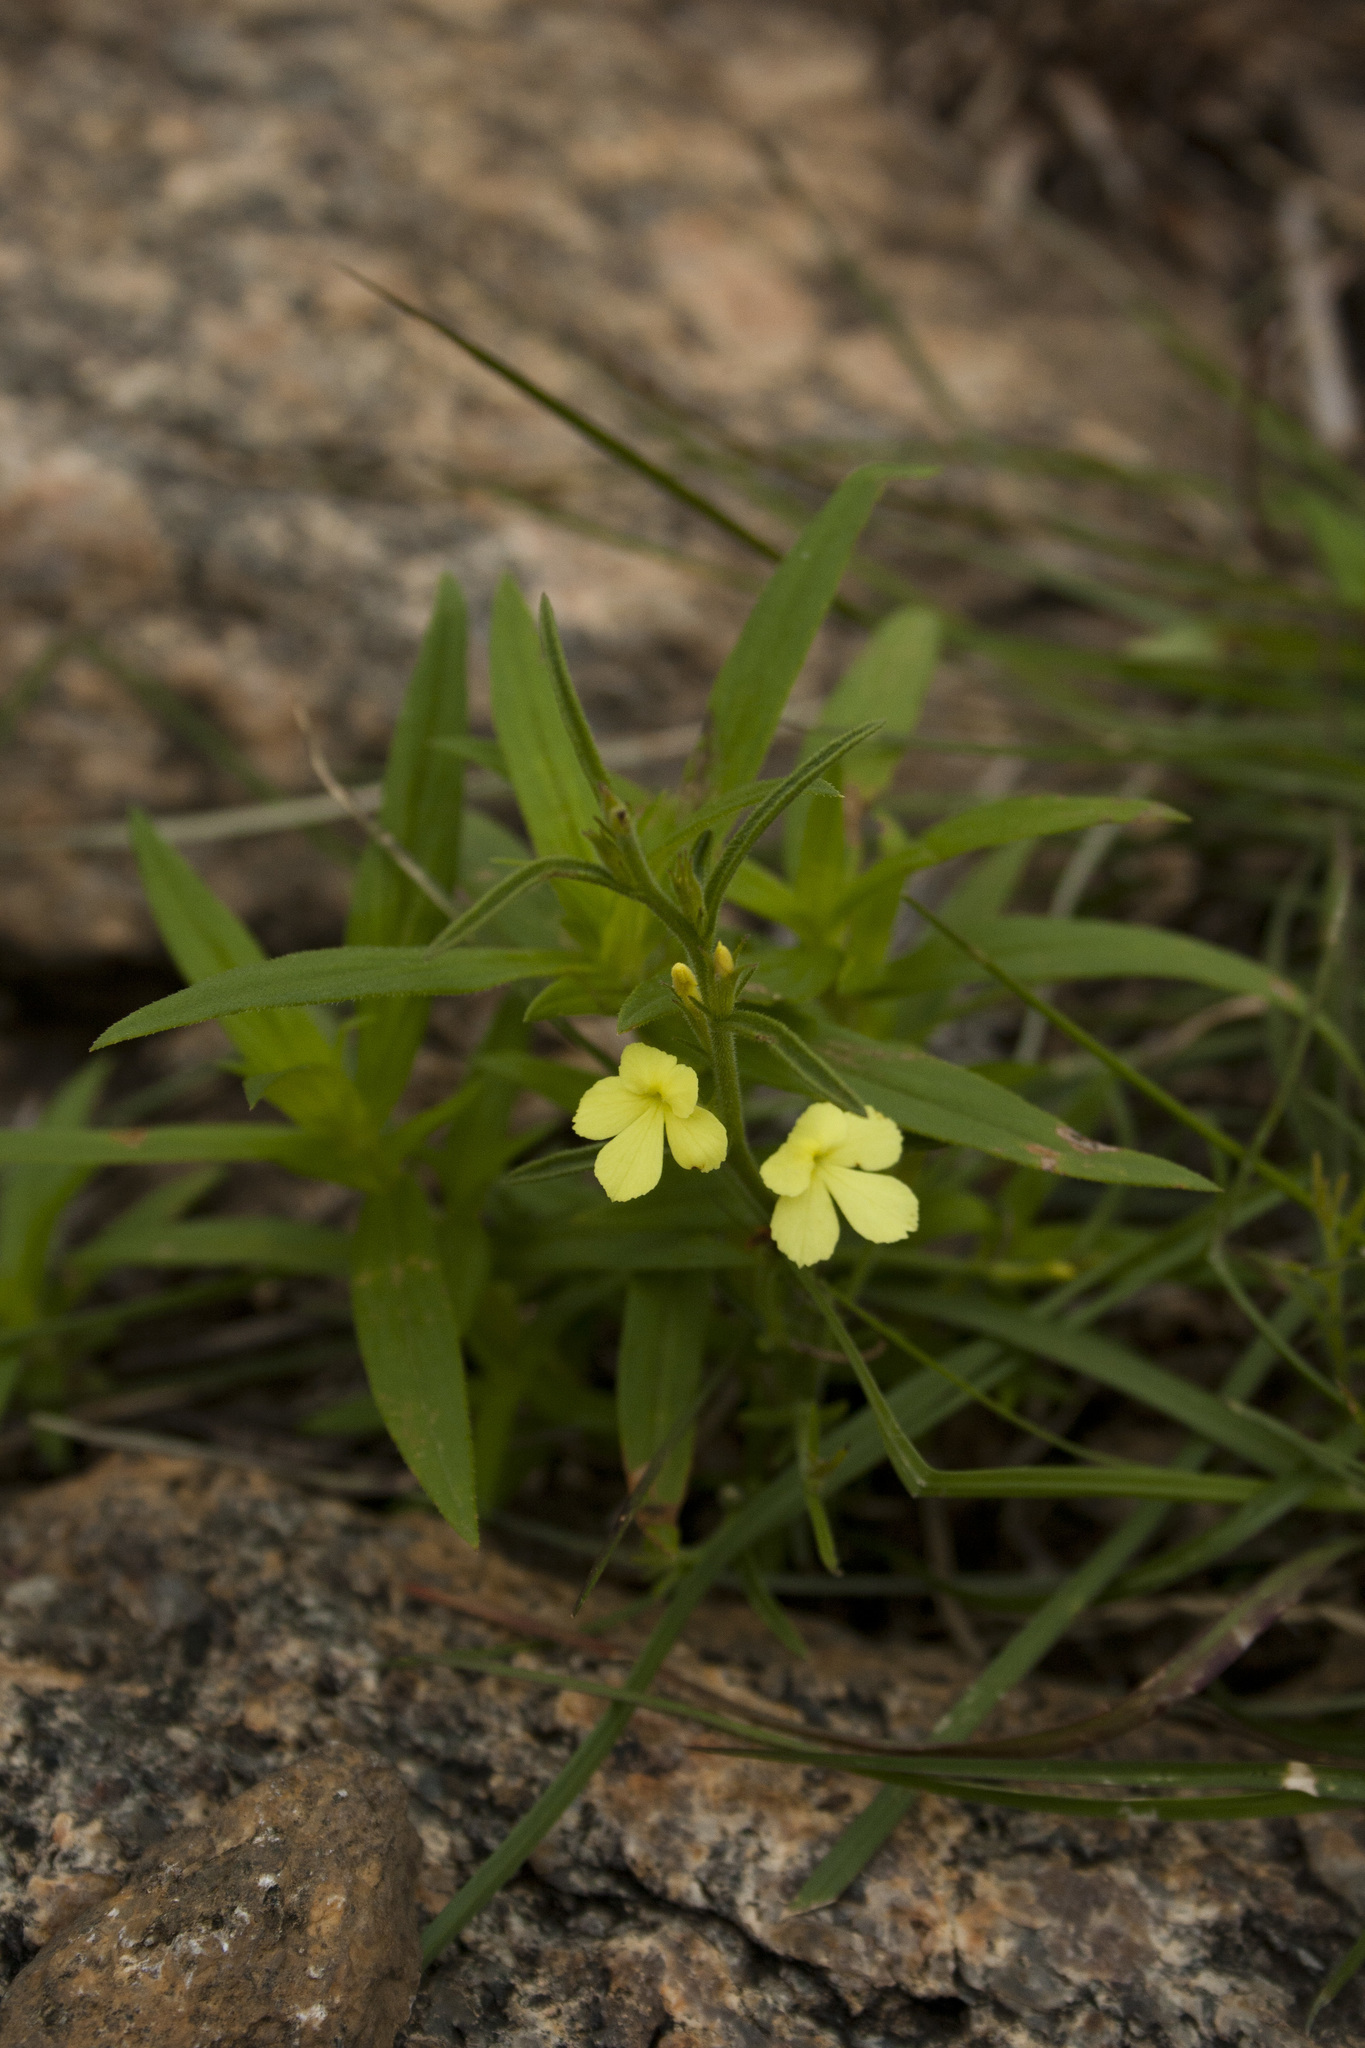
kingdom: Plantae
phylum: Tracheophyta
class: Magnoliopsida
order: Lamiales
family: Orobanchaceae
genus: Striga
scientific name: Striga asiatica
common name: Asiatic witchweed
